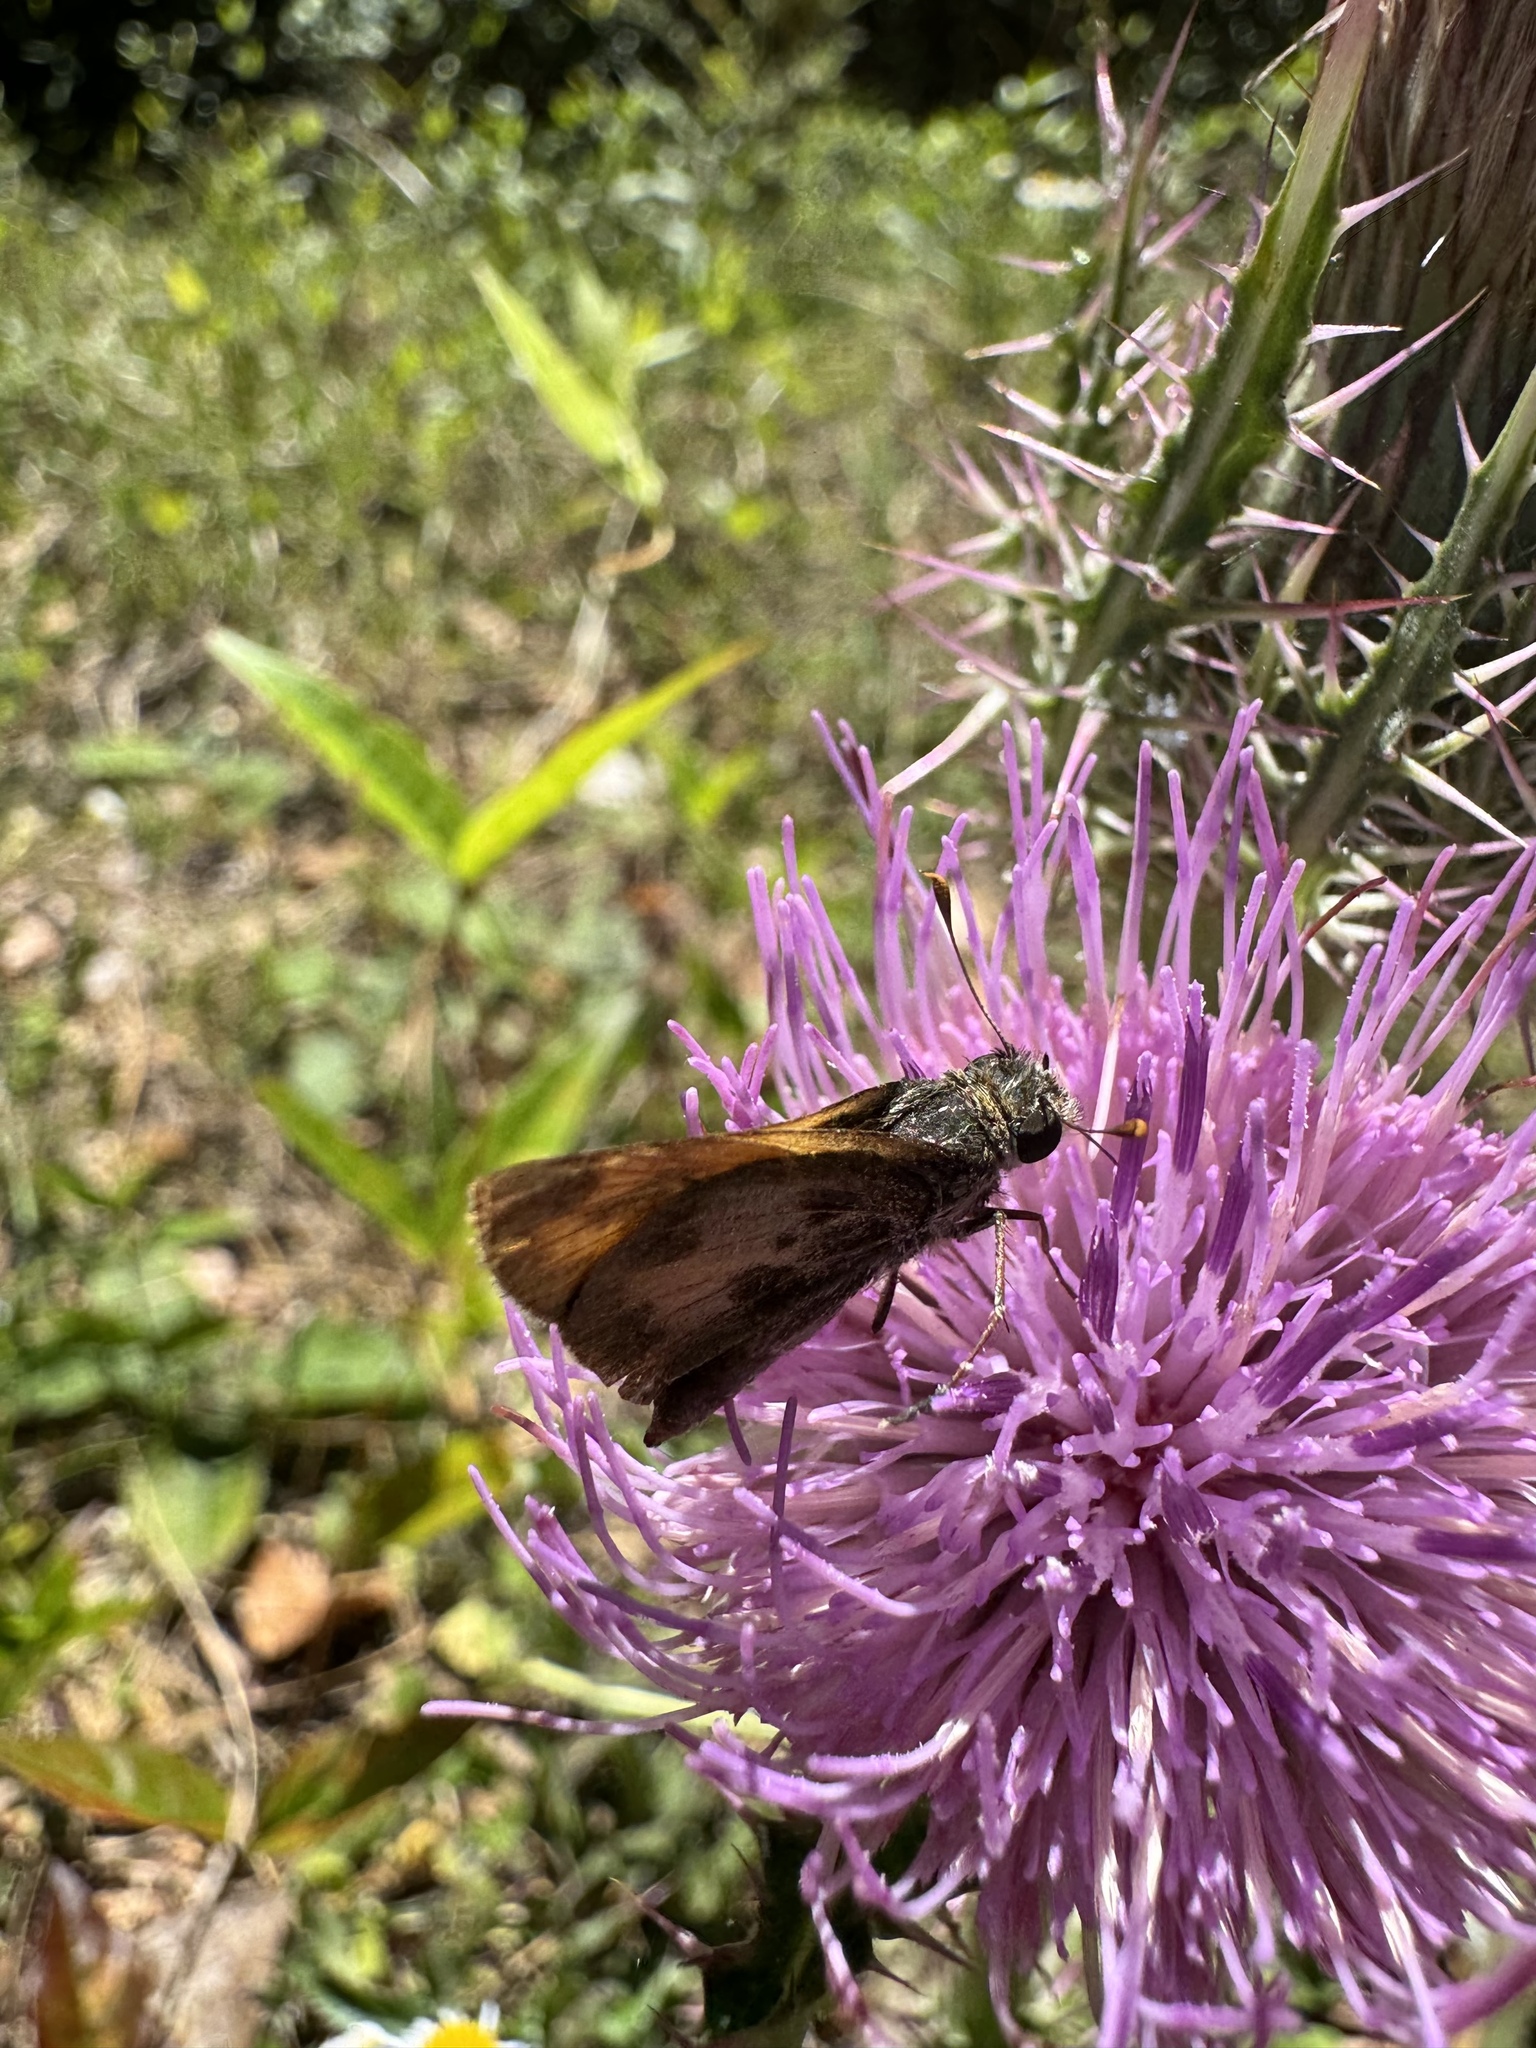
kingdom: Animalia
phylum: Arthropoda
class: Insecta
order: Lepidoptera
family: Hesperiidae
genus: Polites
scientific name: Polites vibex
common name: Whirlabout
